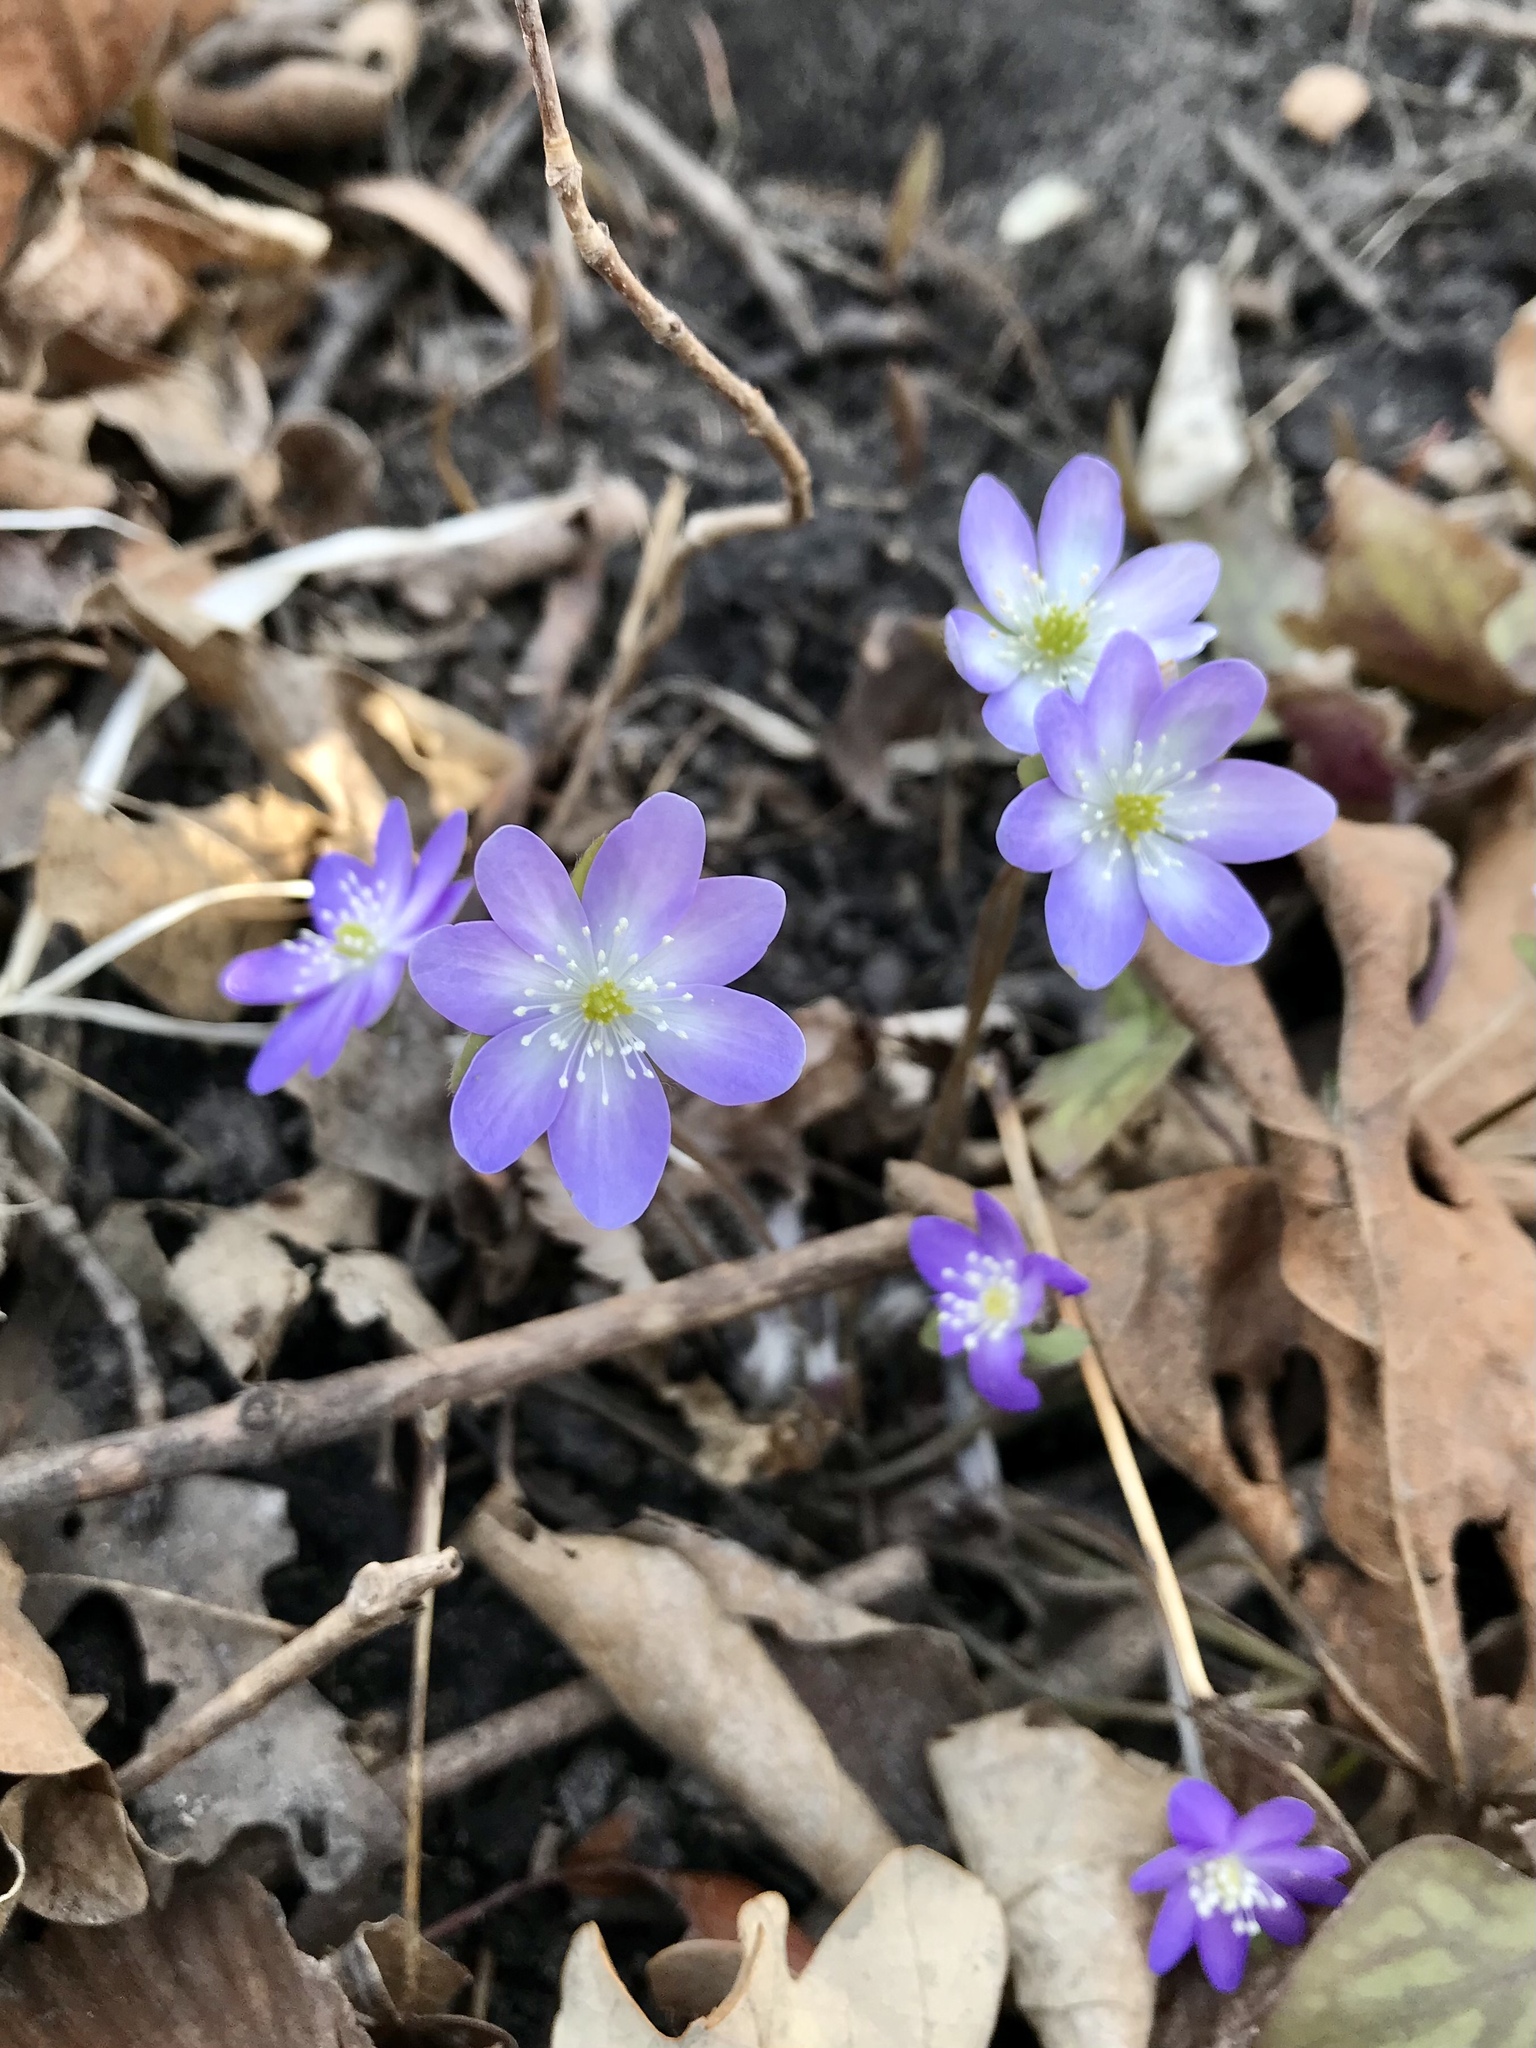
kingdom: Plantae
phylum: Tracheophyta
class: Magnoliopsida
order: Ranunculales
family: Ranunculaceae
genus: Hepatica
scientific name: Hepatica acutiloba
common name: Sharp-lobed hepatica
